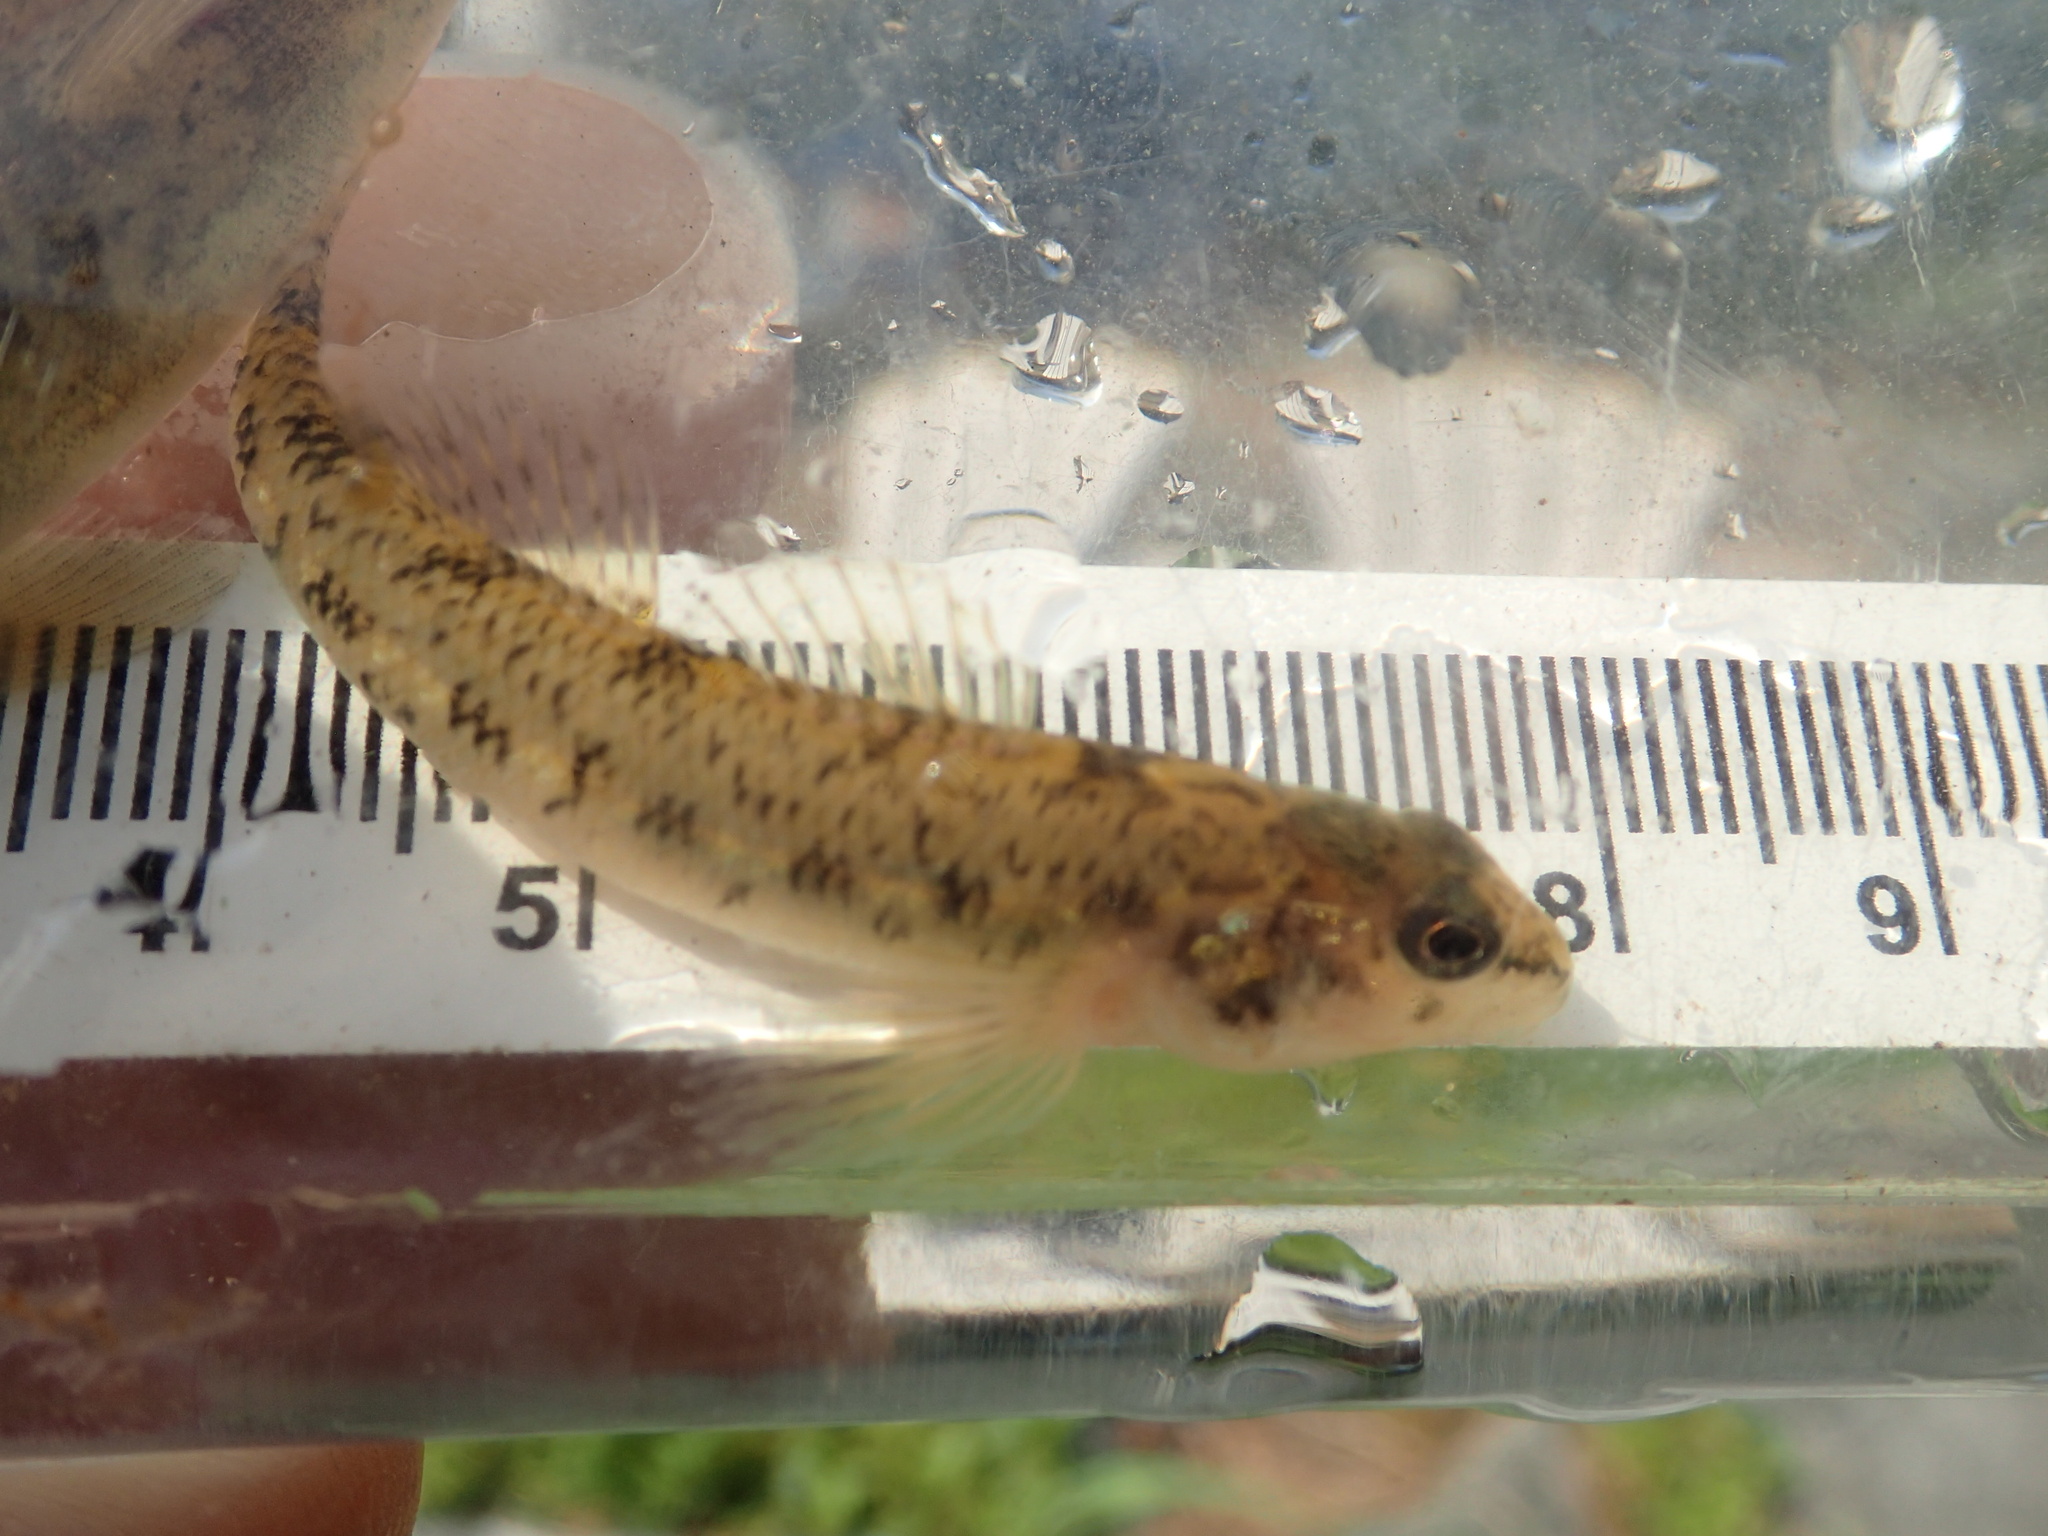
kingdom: Animalia
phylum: Chordata
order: Perciformes
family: Percidae
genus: Etheostoma
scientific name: Etheostoma nigrum
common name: Johnny darter
